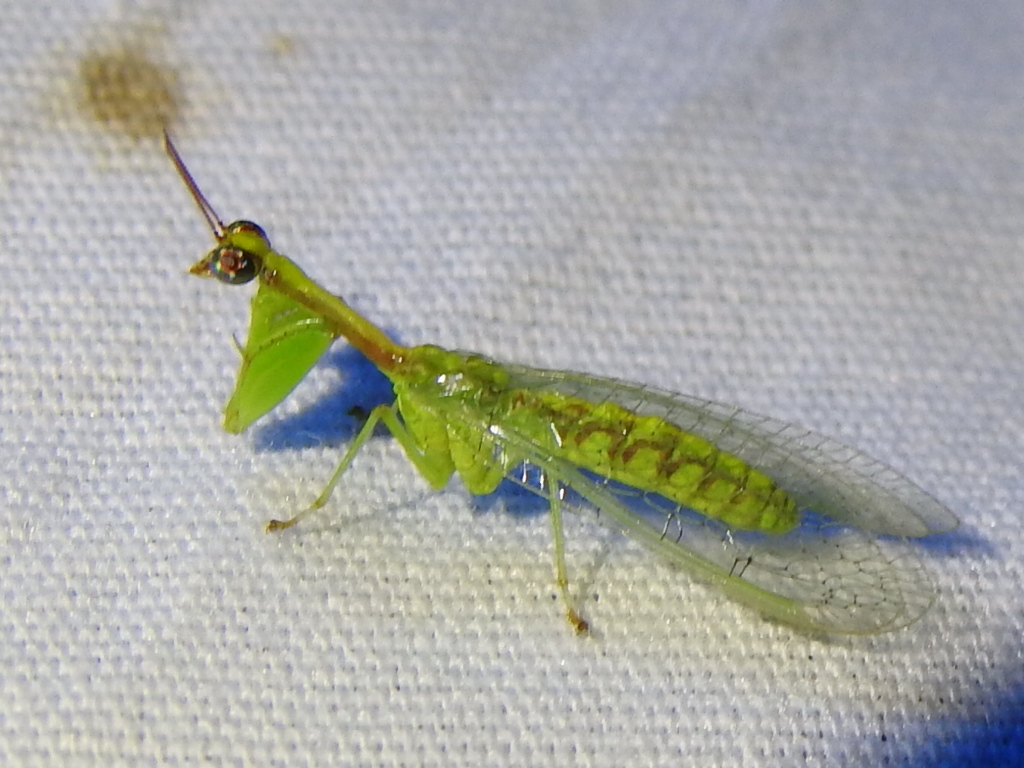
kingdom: Animalia
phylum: Arthropoda
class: Insecta
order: Neuroptera
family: Mantispidae
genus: Zeugomantispa
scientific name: Zeugomantispa minuta
